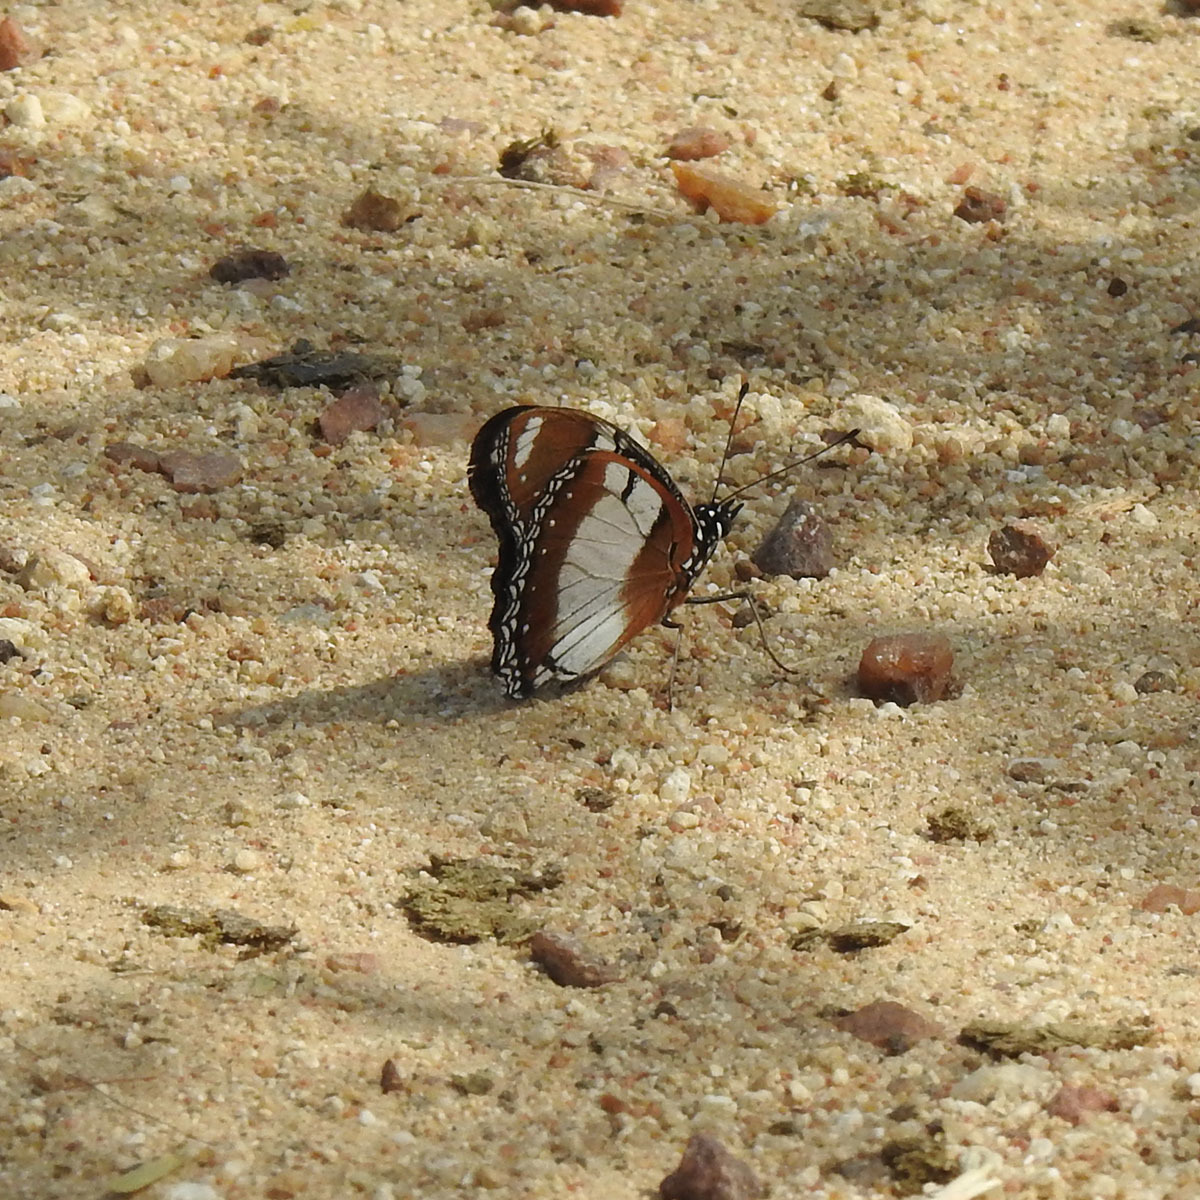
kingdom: Animalia
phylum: Arthropoda
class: Insecta
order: Lepidoptera
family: Nymphalidae
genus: Hypolimnas
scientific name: Hypolimnas misippus
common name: False plain tiger
